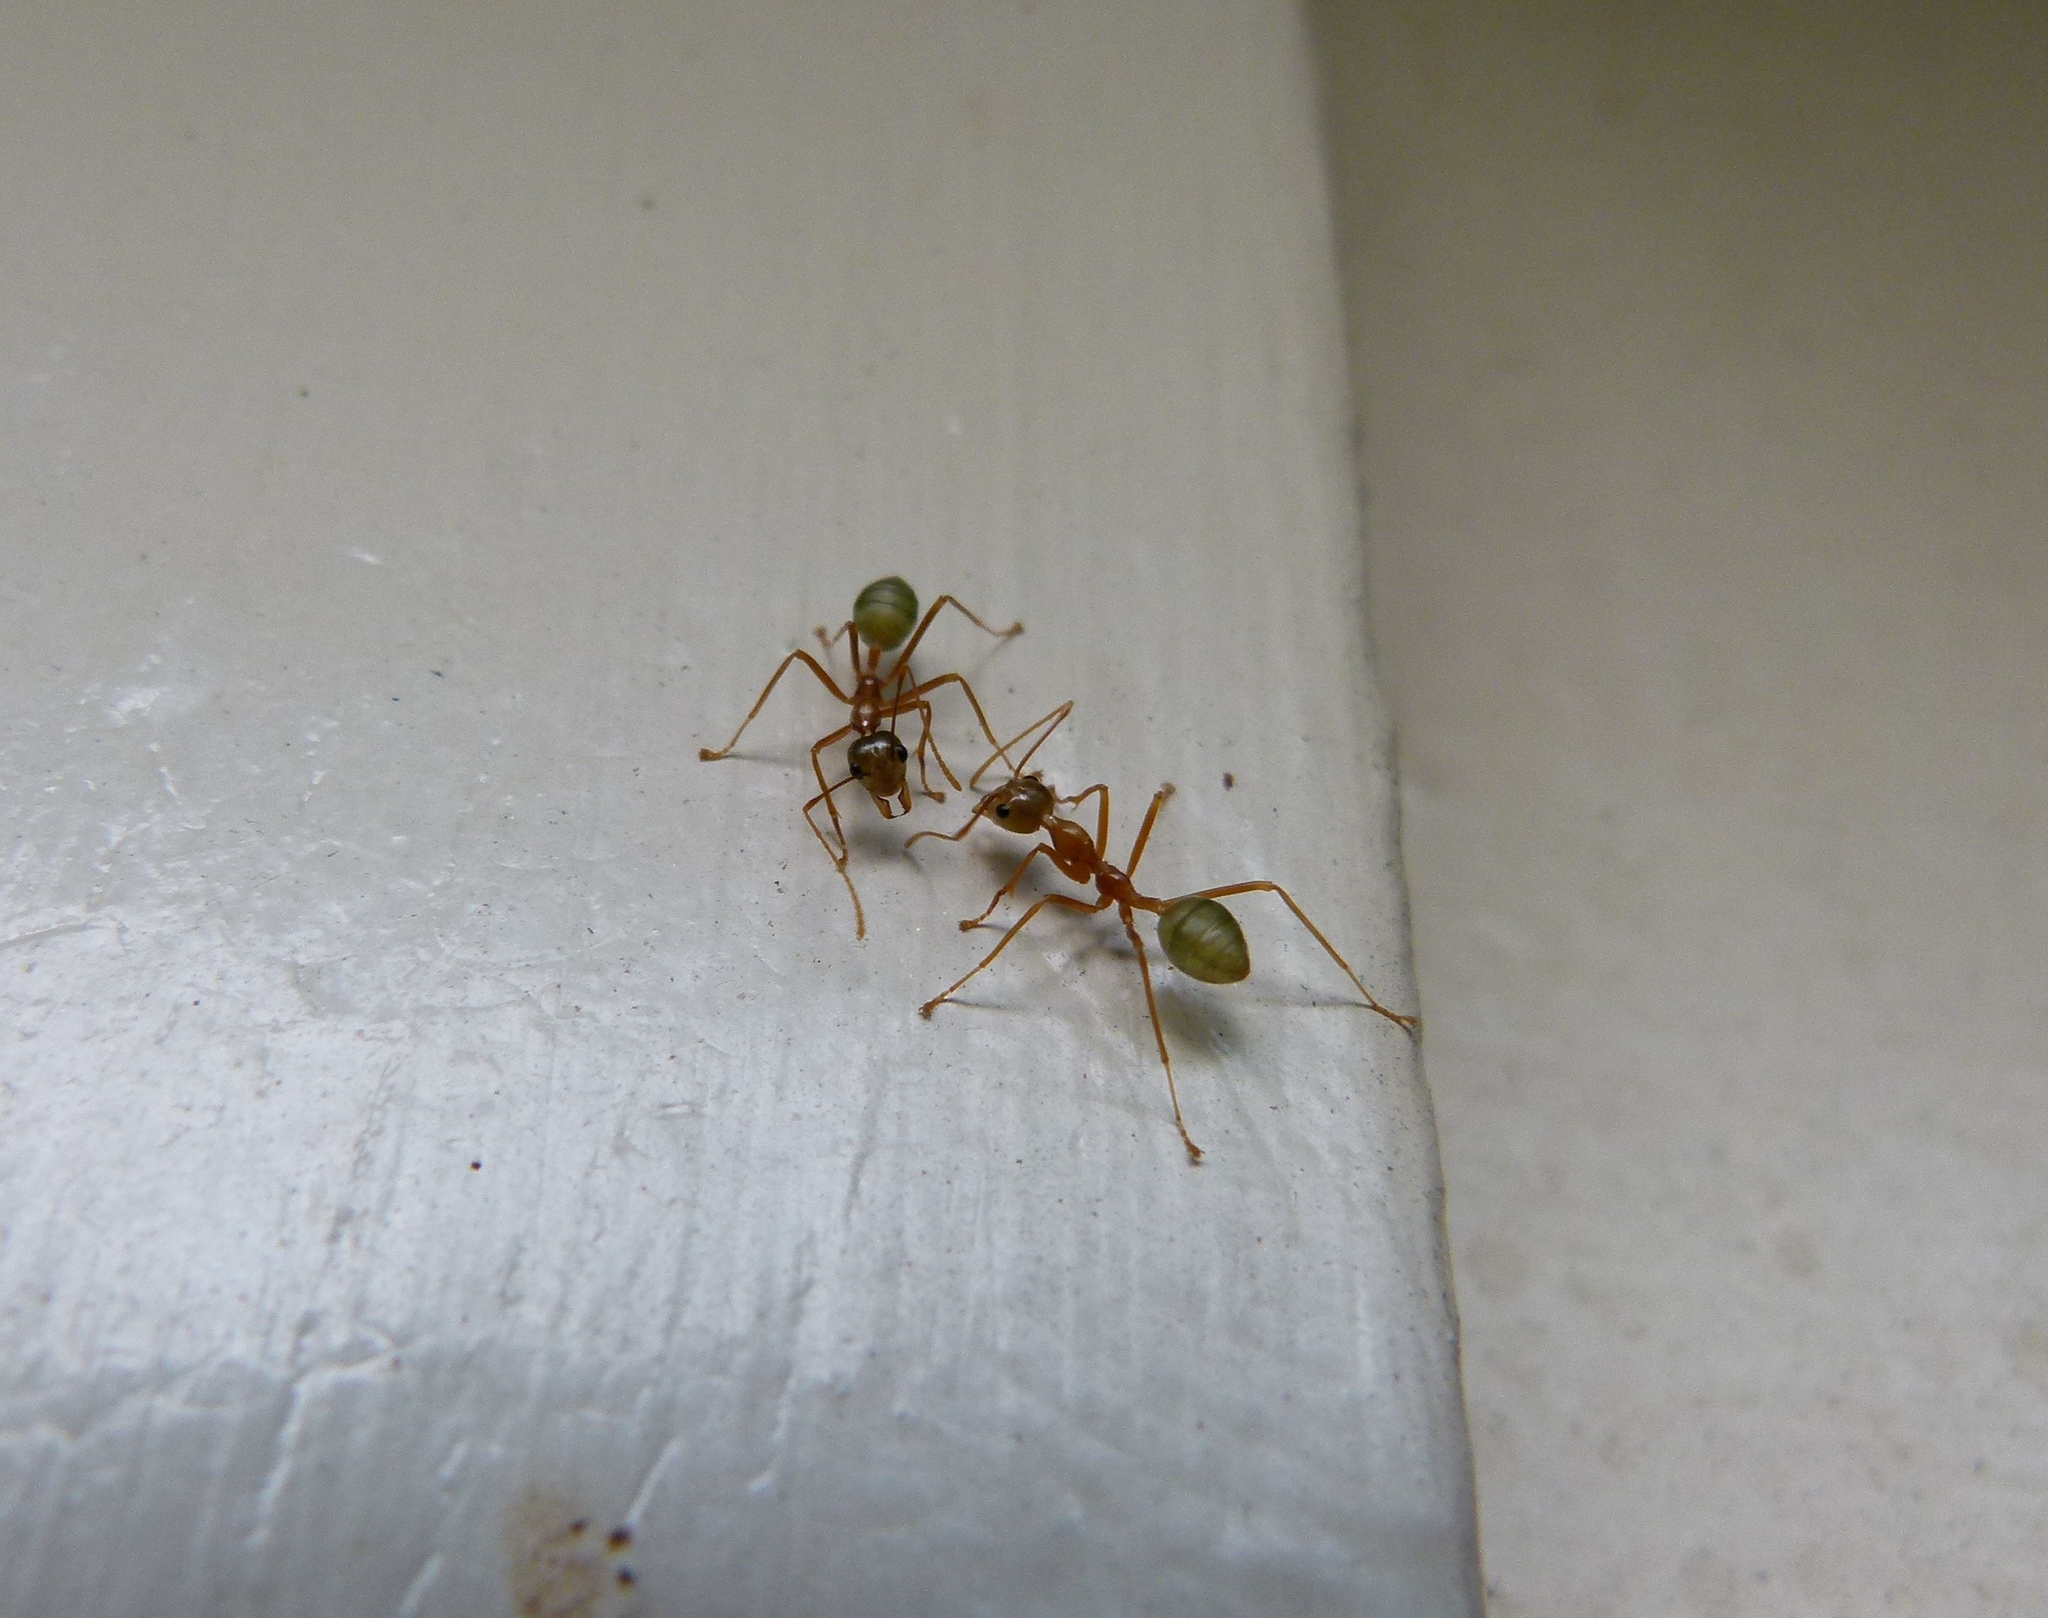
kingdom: Animalia
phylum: Arthropoda
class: Insecta
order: Hymenoptera
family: Formicidae
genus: Oecophylla
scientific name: Oecophylla smaragdina
